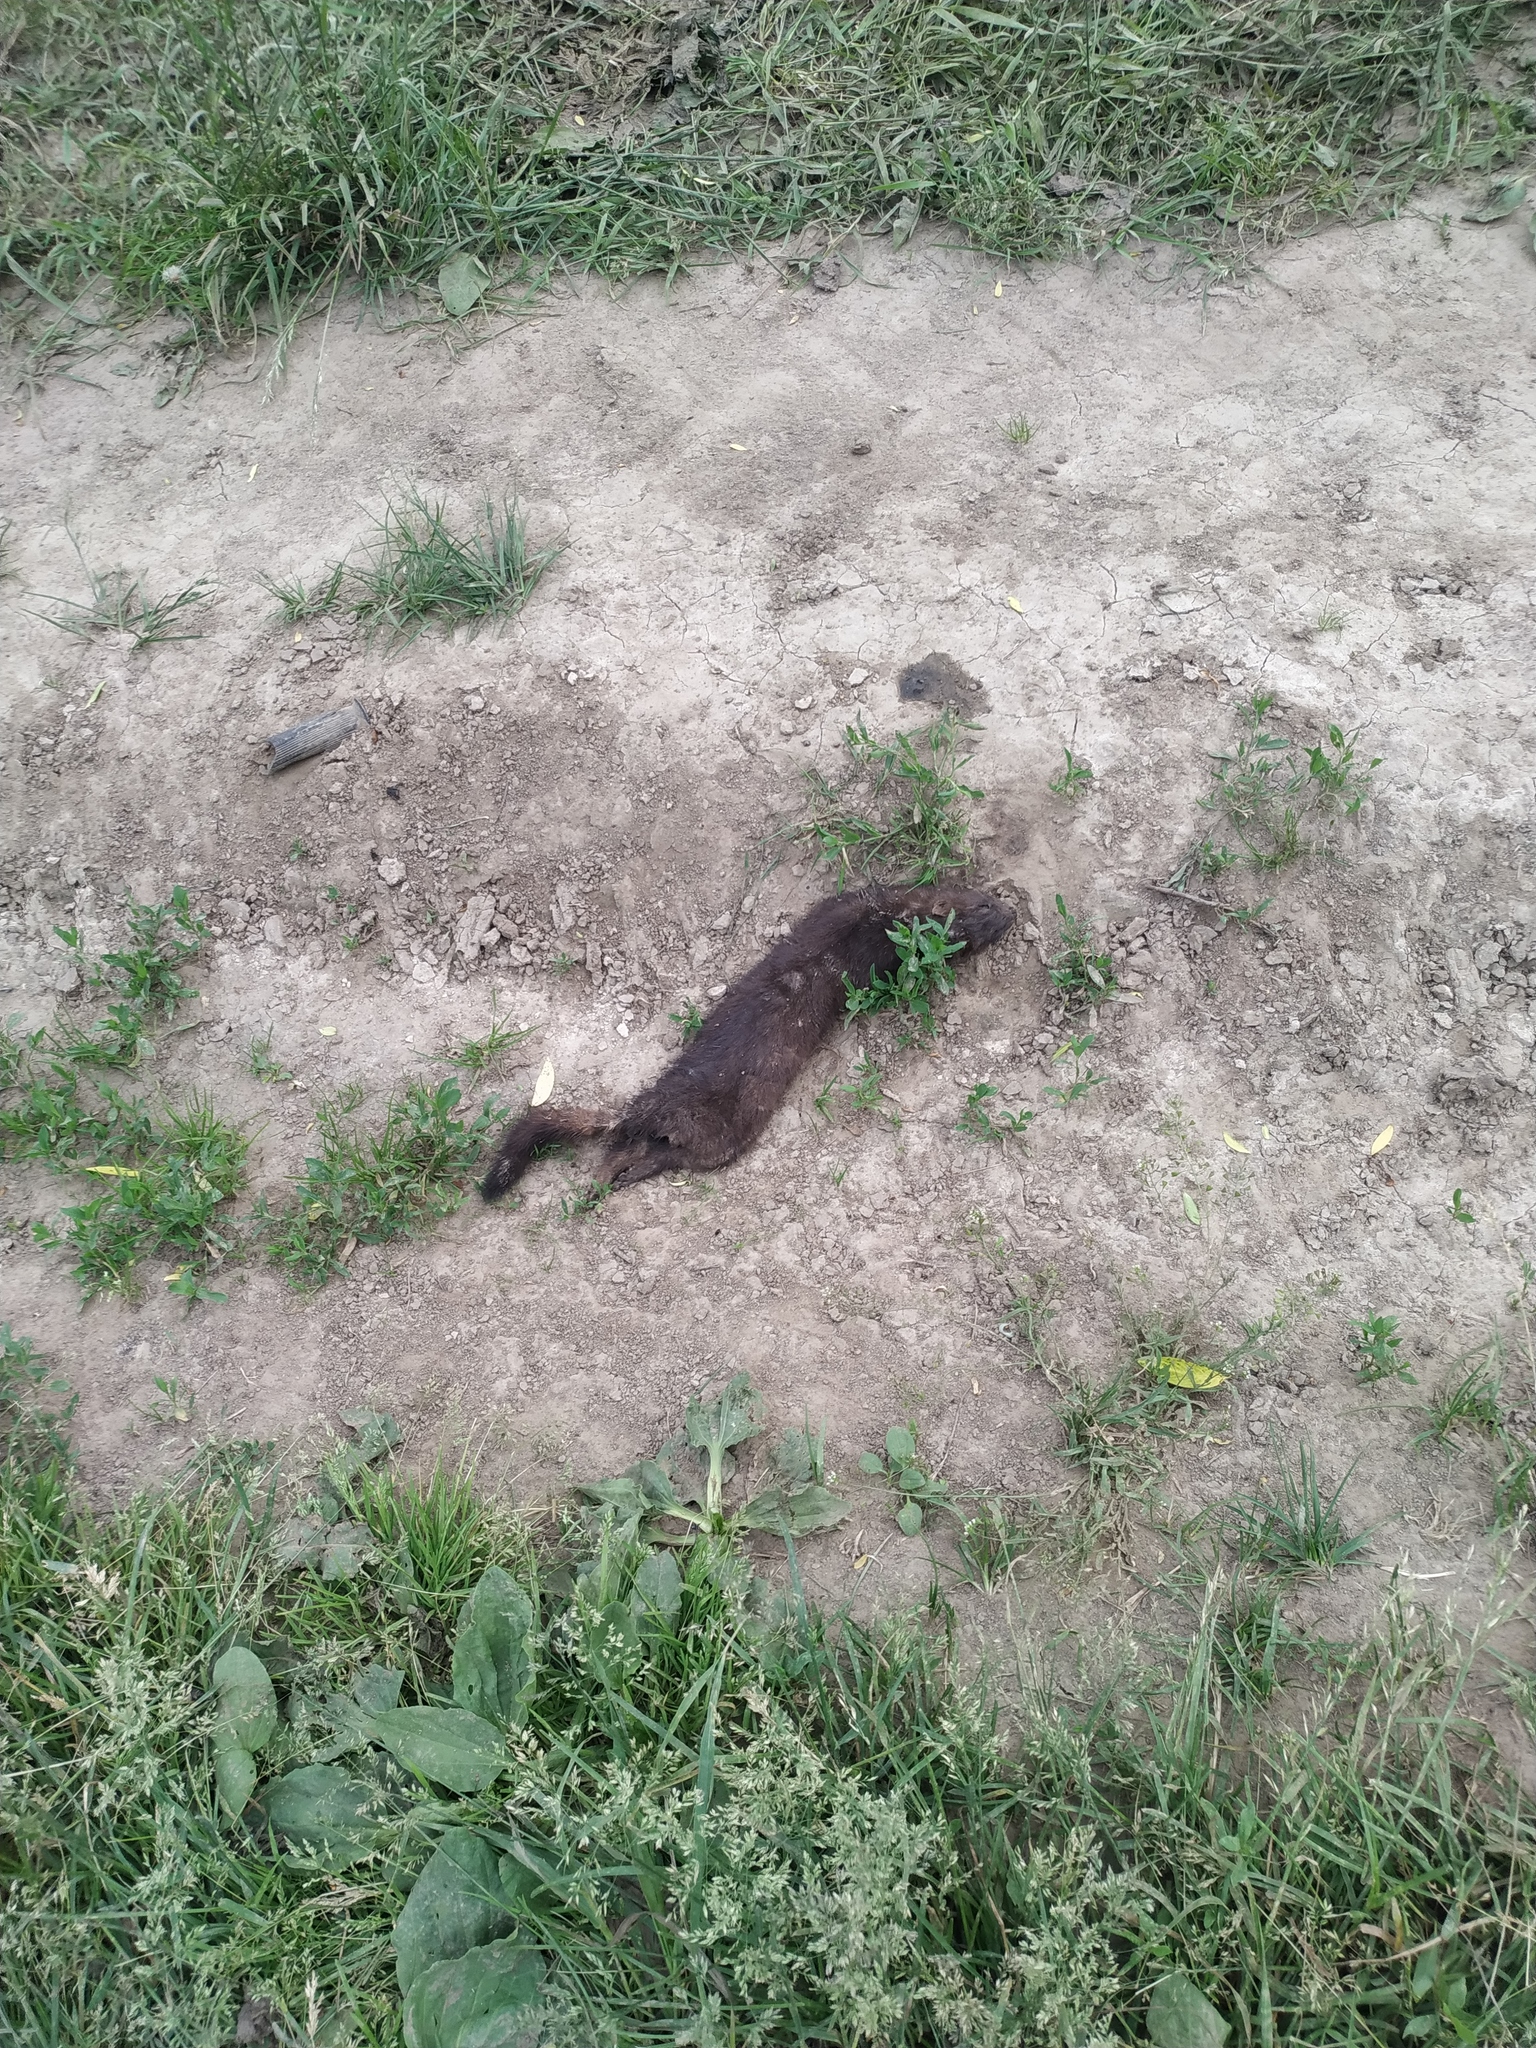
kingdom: Animalia
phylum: Chordata
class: Mammalia
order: Carnivora
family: Mustelidae
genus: Mustela
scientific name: Mustela
